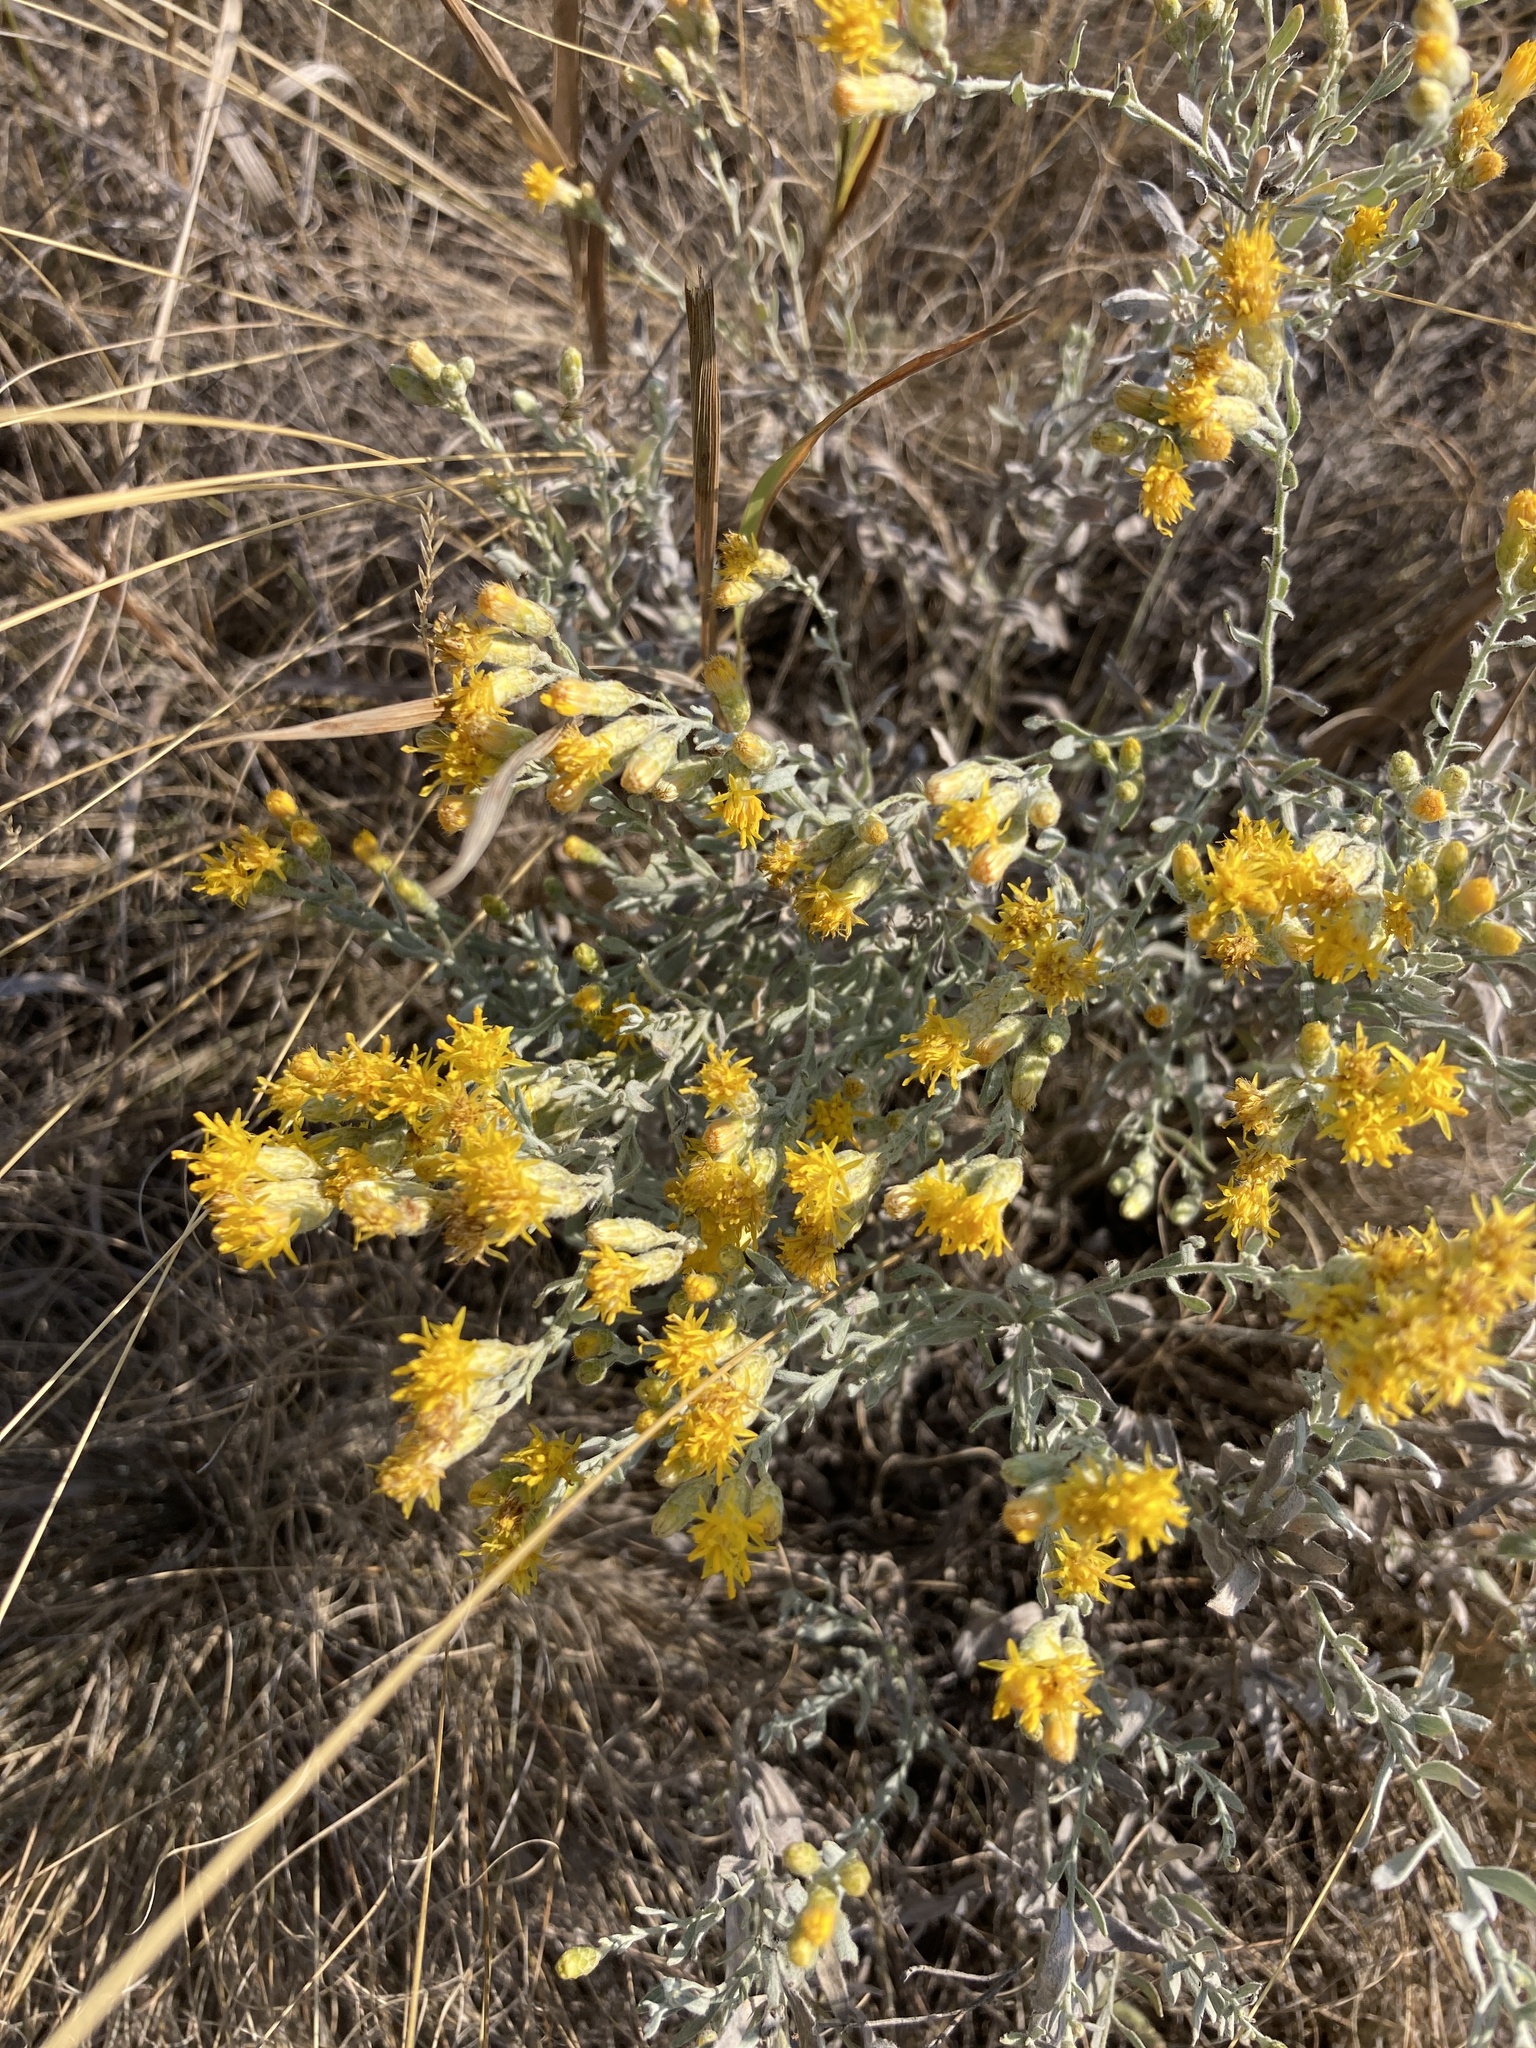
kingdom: Plantae
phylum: Tracheophyta
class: Magnoliopsida
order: Asterales
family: Asteraceae
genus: Galatella
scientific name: Galatella villosa
